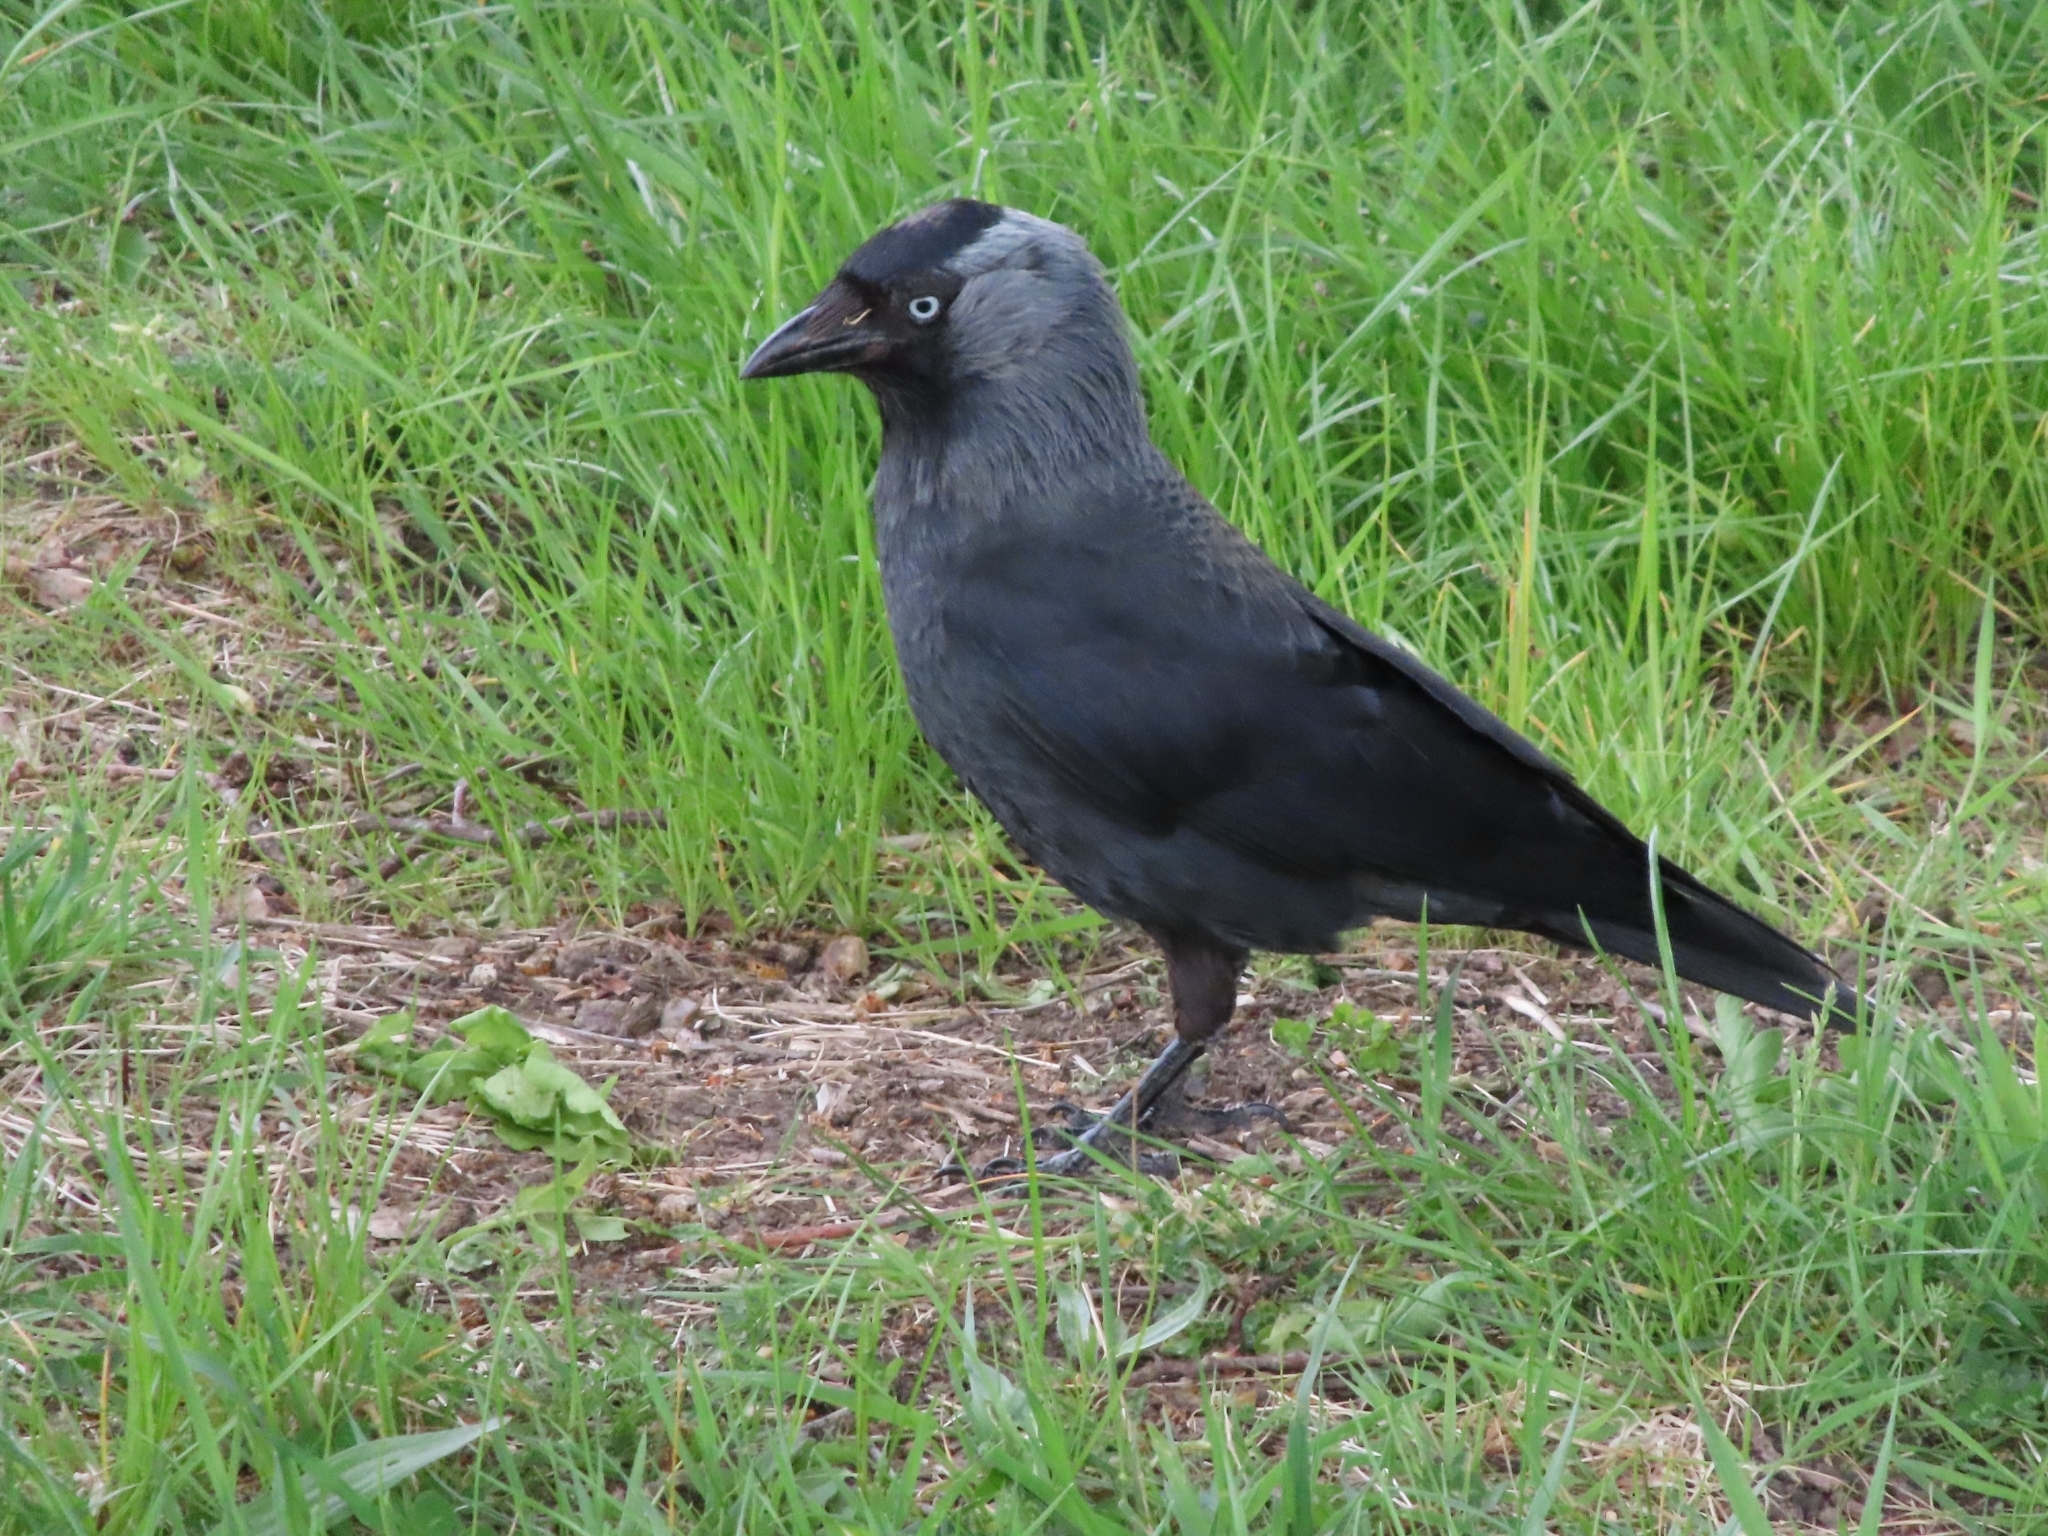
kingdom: Animalia
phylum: Chordata
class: Aves
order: Passeriformes
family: Corvidae
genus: Coloeus
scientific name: Coloeus monedula
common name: Western jackdaw
